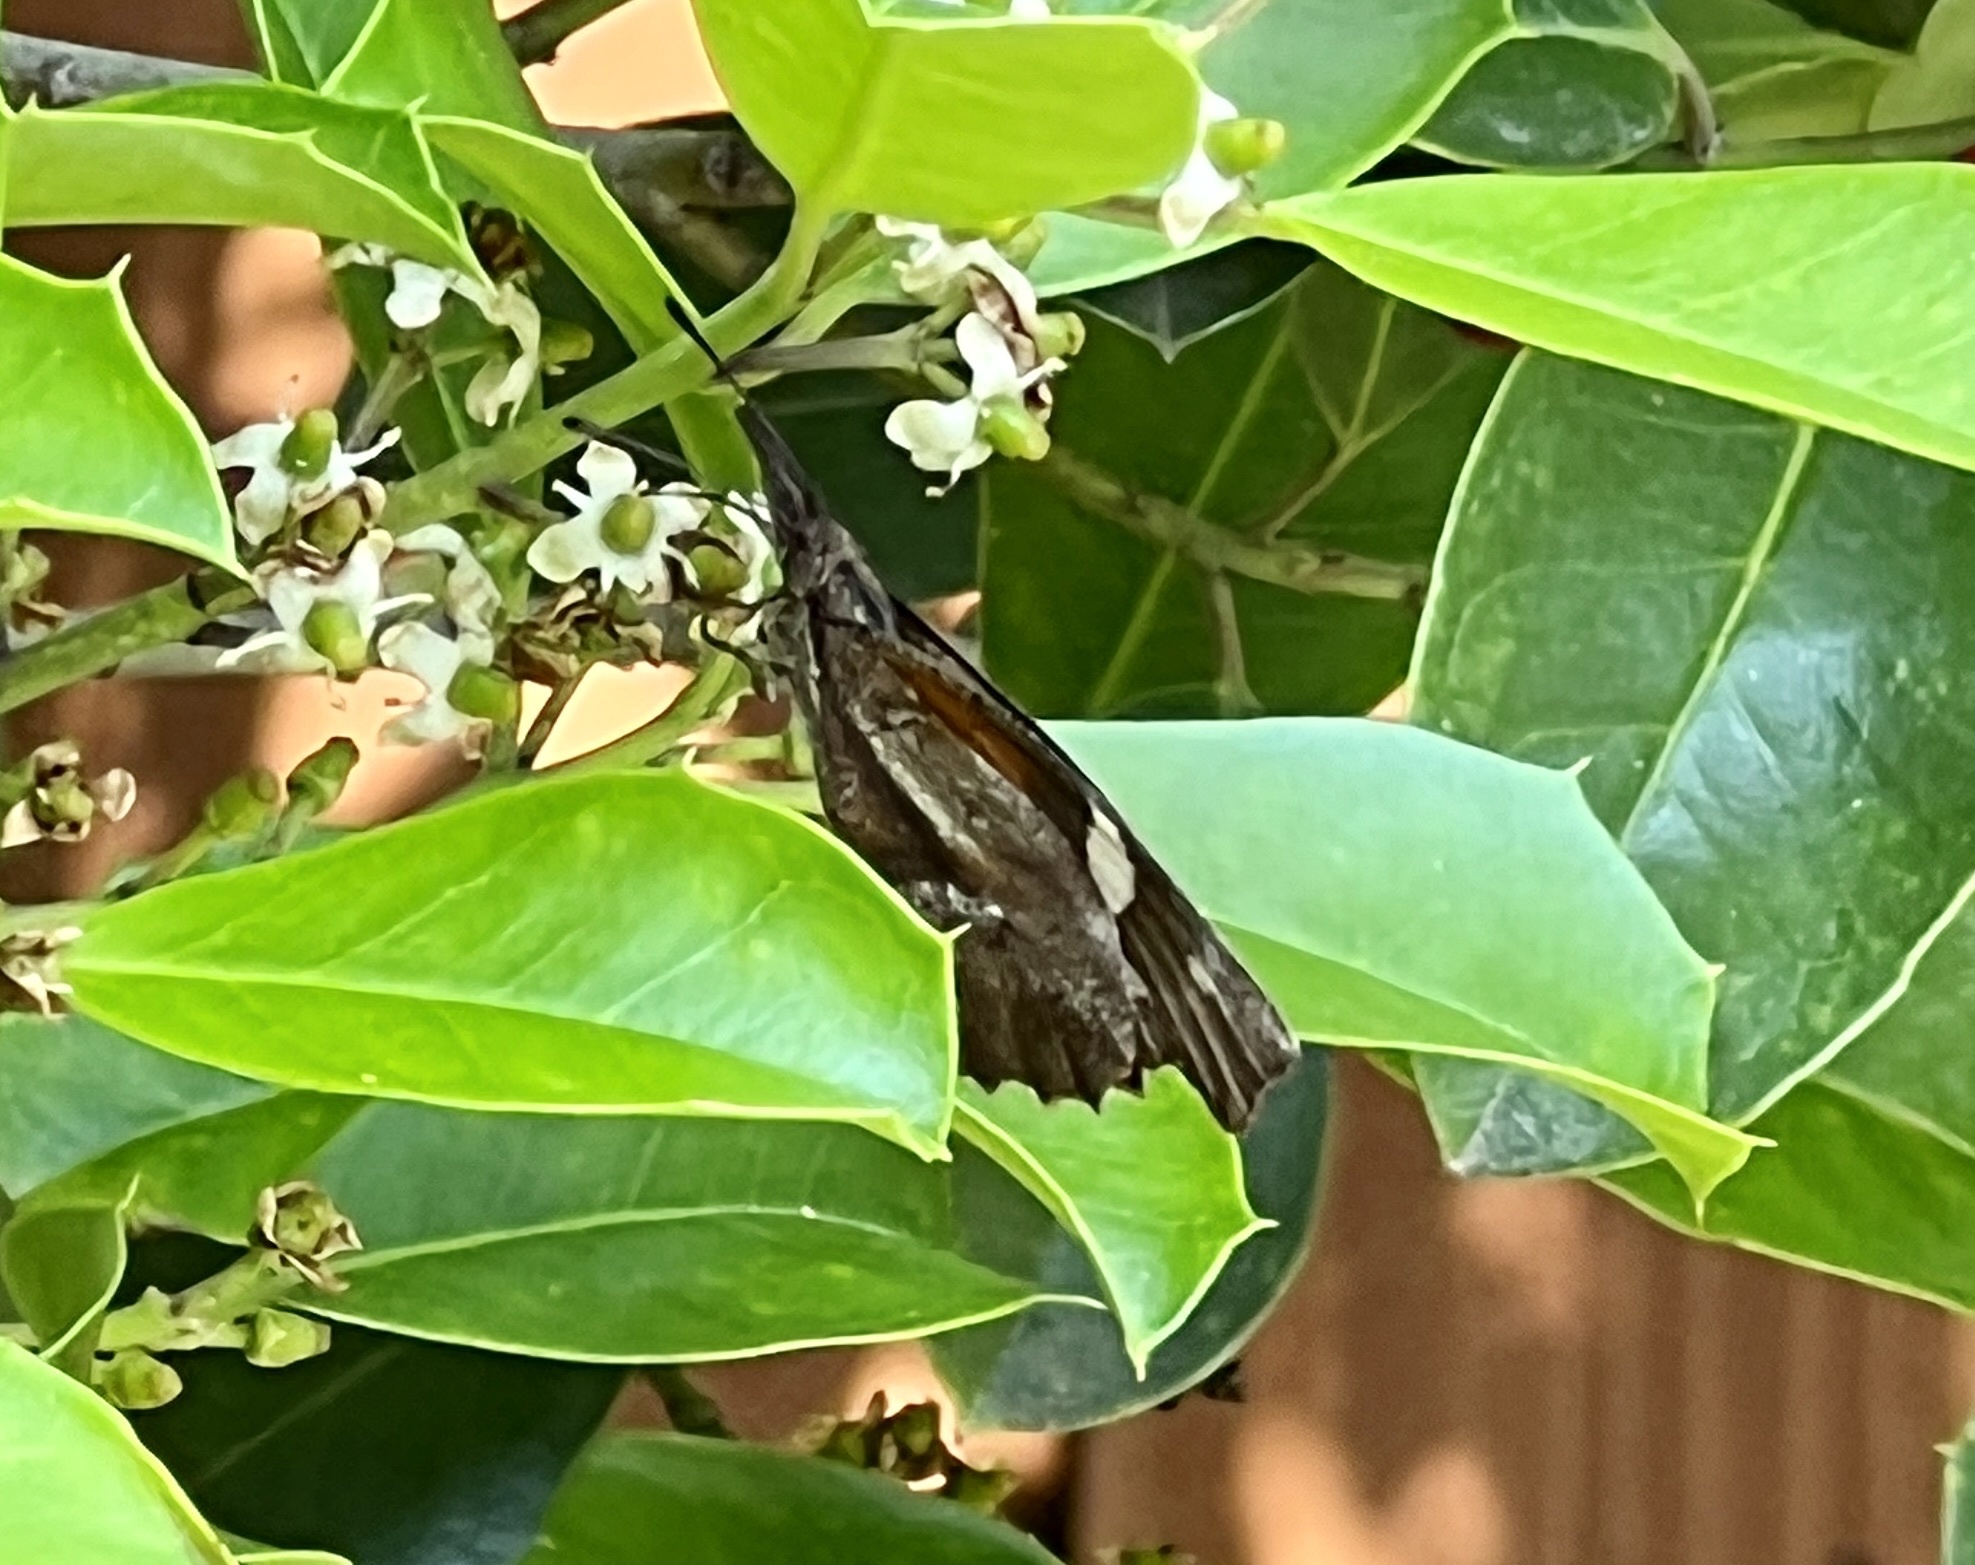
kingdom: Animalia
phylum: Arthropoda
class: Insecta
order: Lepidoptera
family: Nymphalidae
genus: Libytheana
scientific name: Libytheana carinenta
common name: American snout
